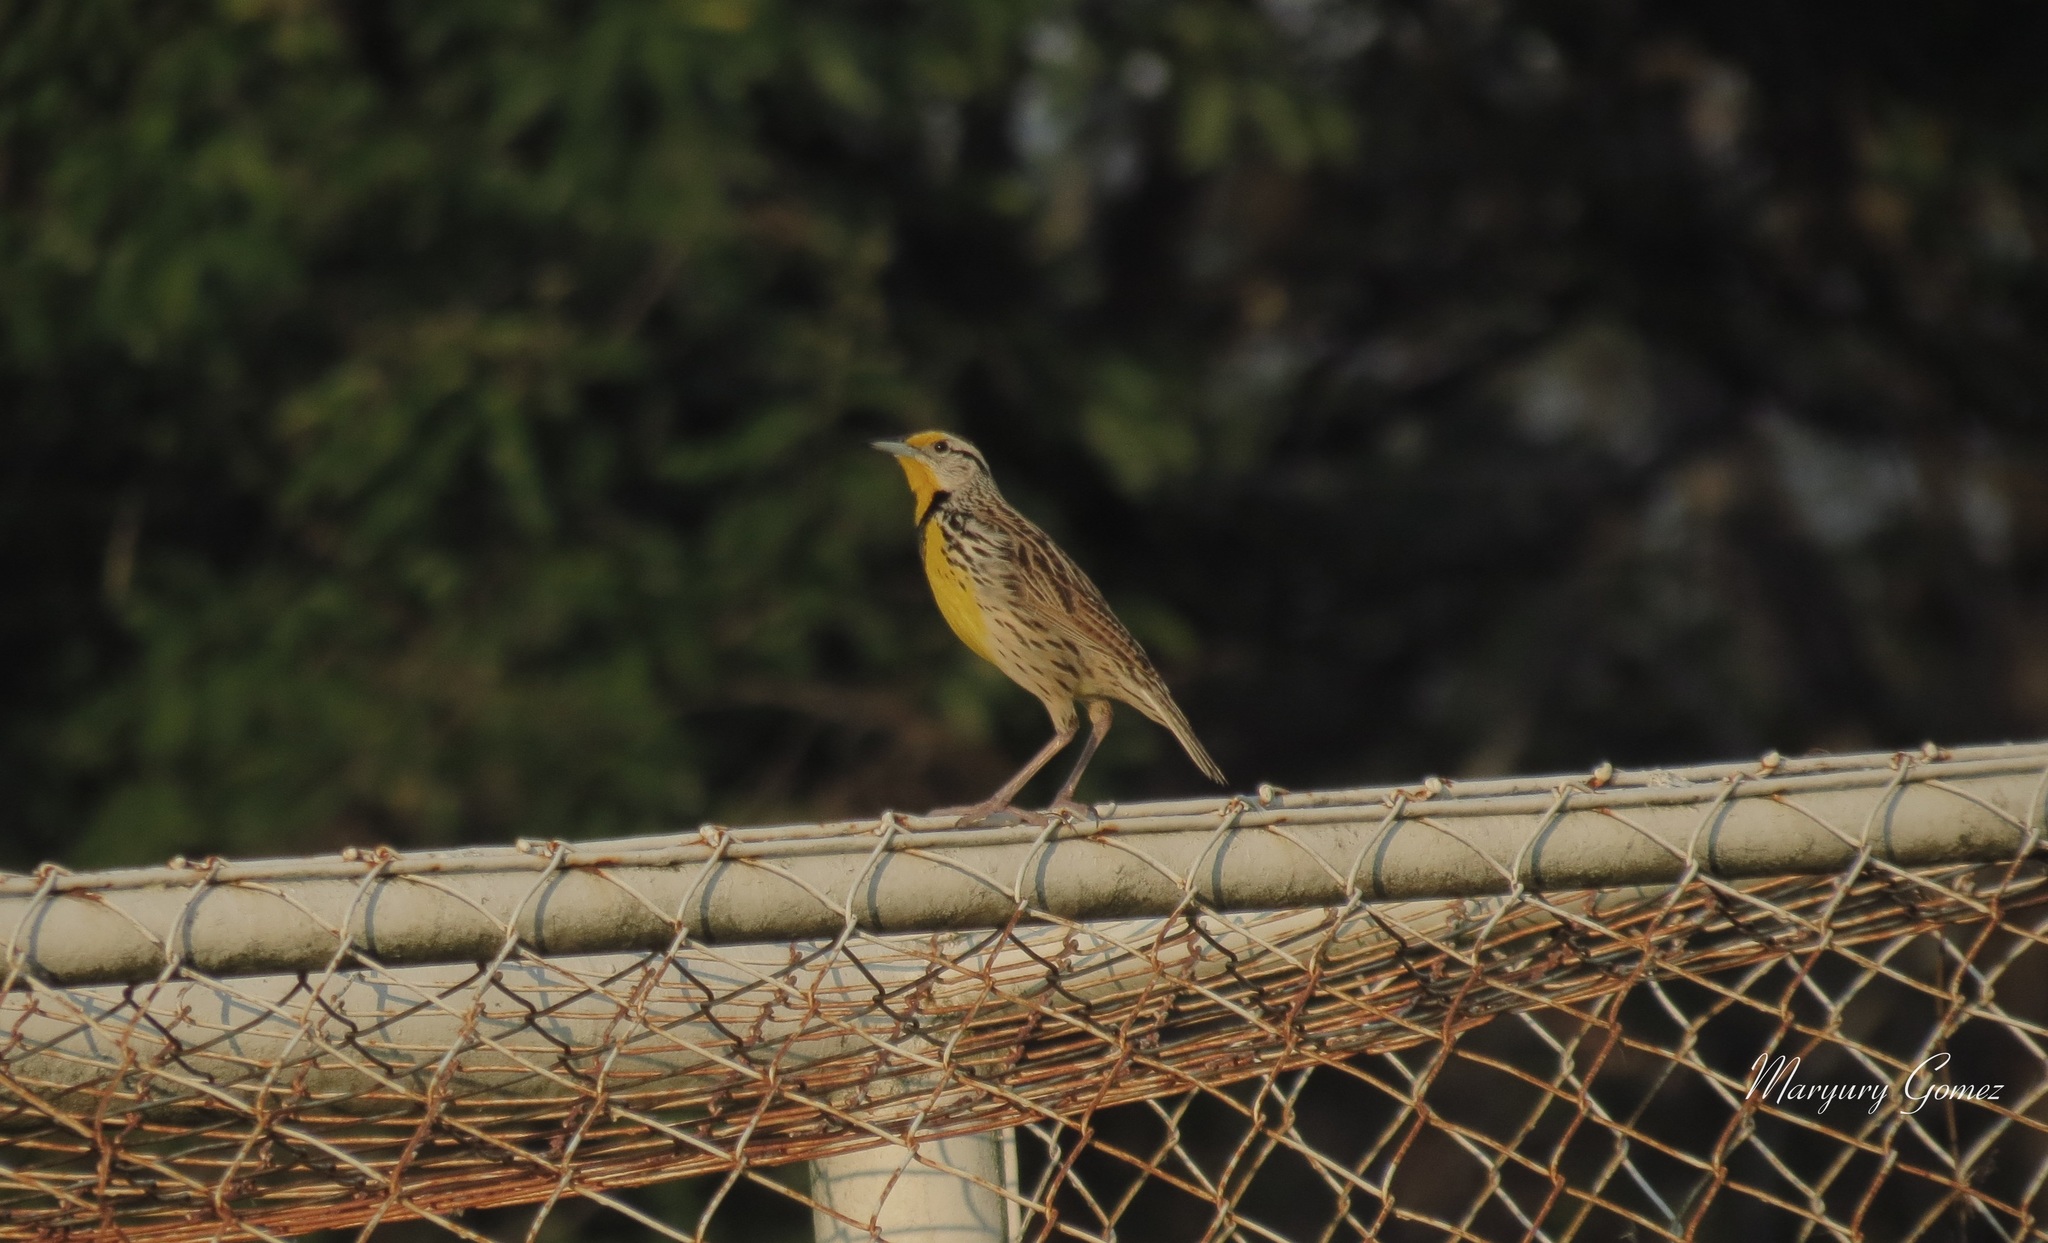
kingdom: Animalia
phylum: Chordata
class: Aves
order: Passeriformes
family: Icteridae
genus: Sturnella
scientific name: Sturnella magna
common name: Eastern meadowlark
